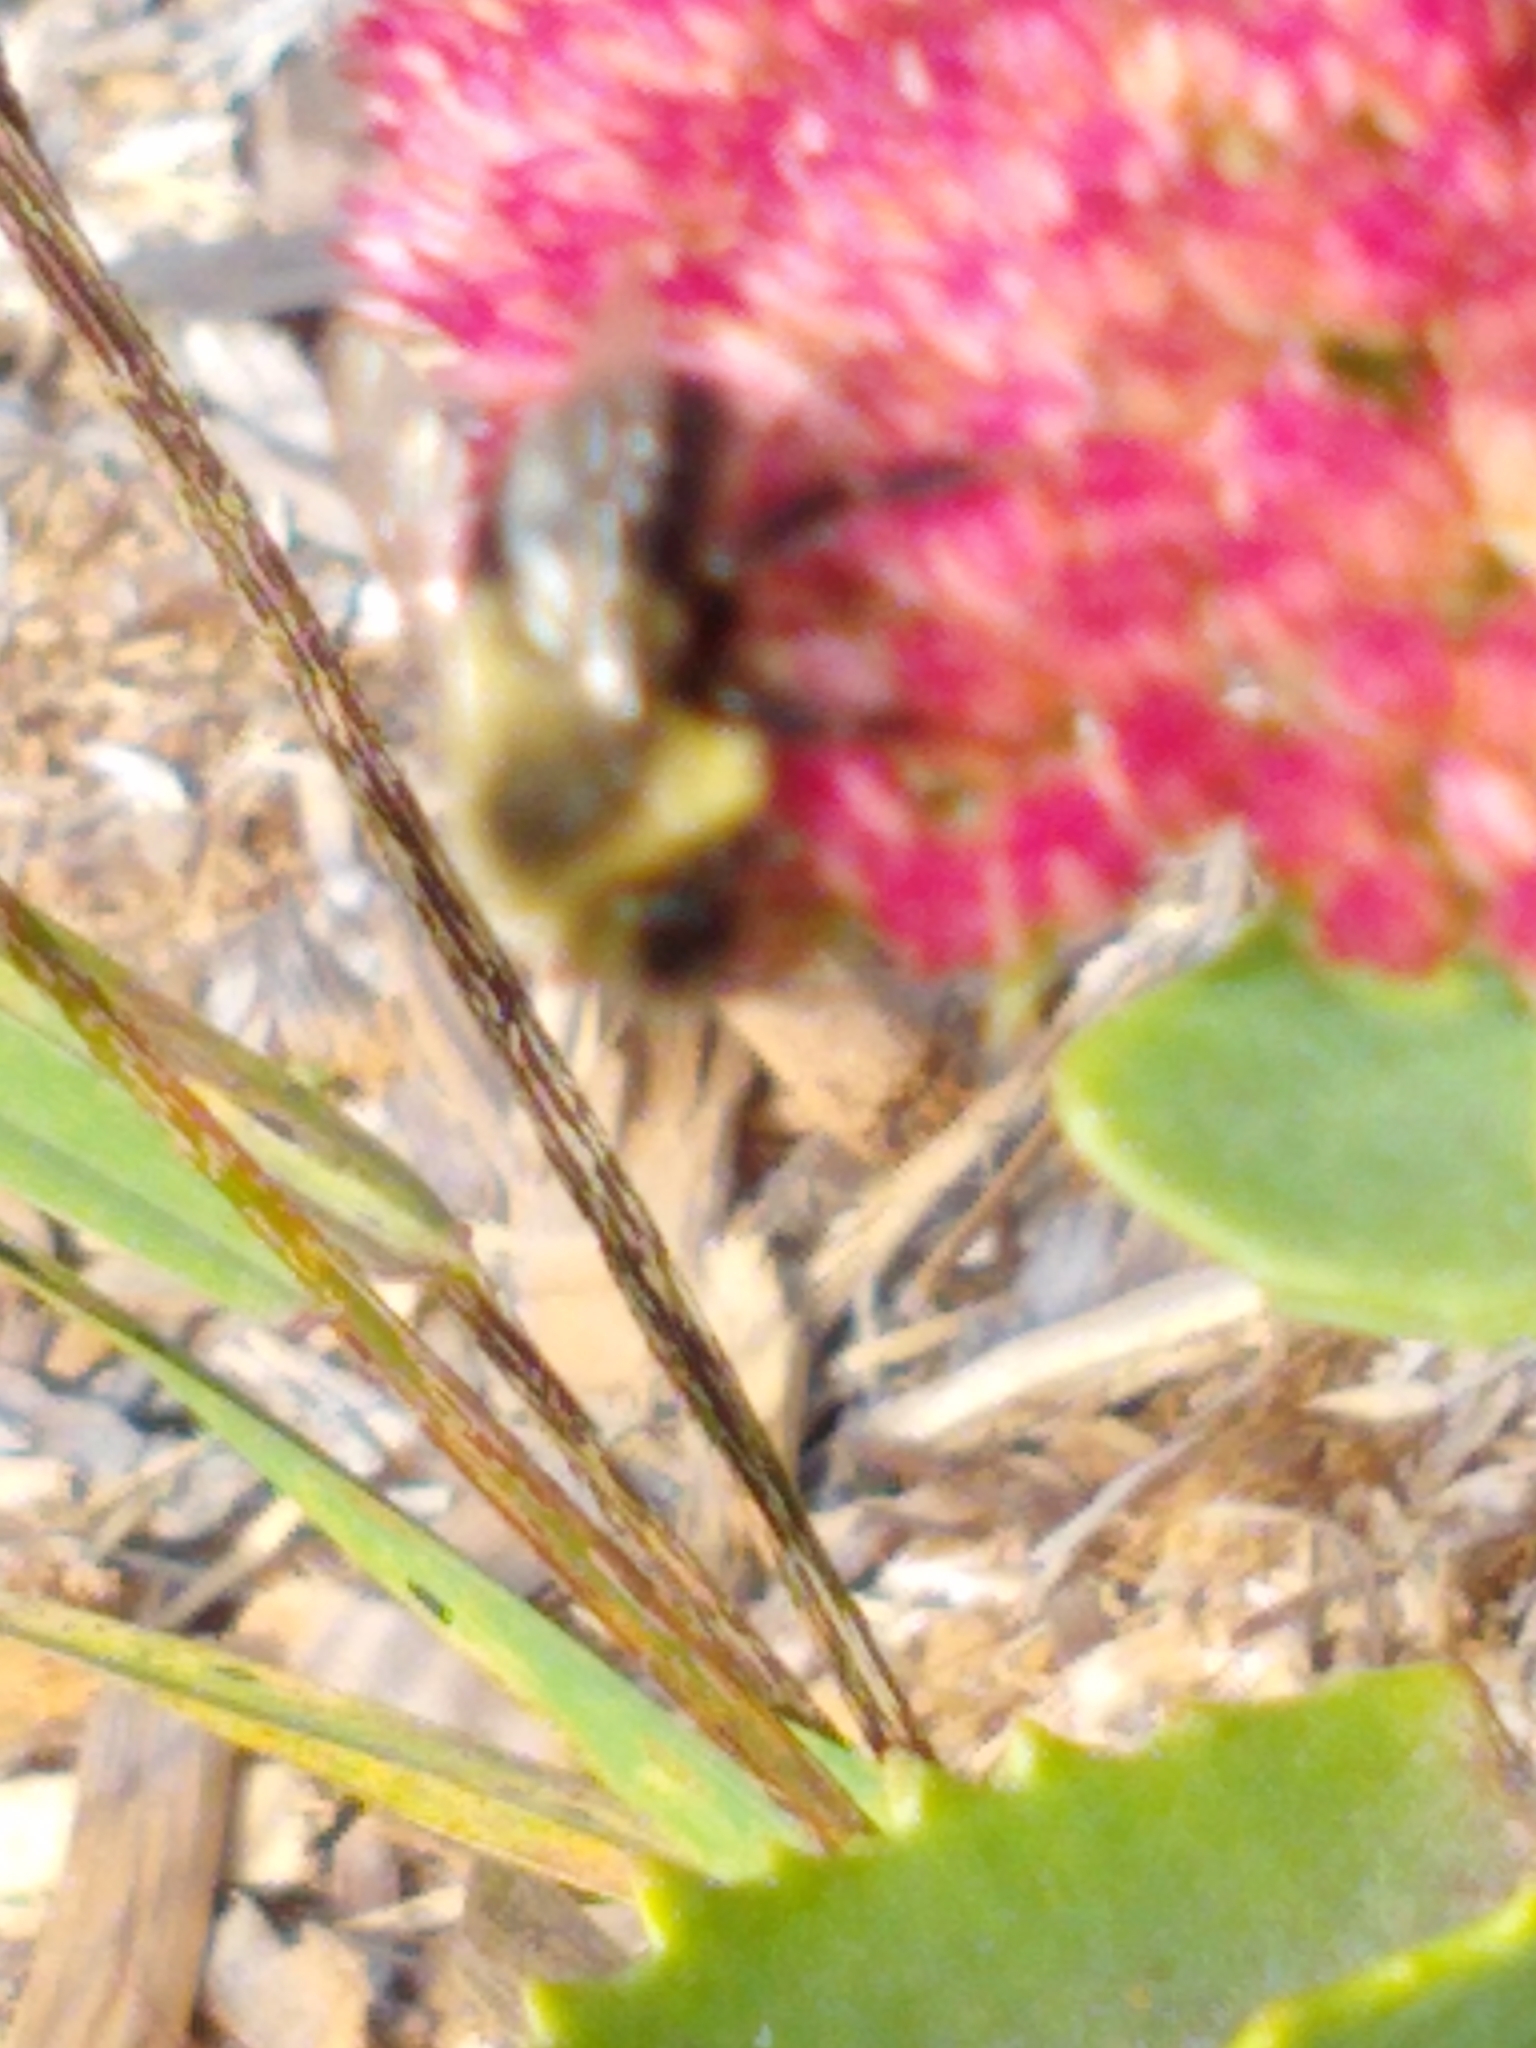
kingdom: Animalia
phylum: Arthropoda
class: Insecta
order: Hymenoptera
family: Apidae
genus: Bombus
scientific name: Bombus impatiens
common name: Common eastern bumble bee
